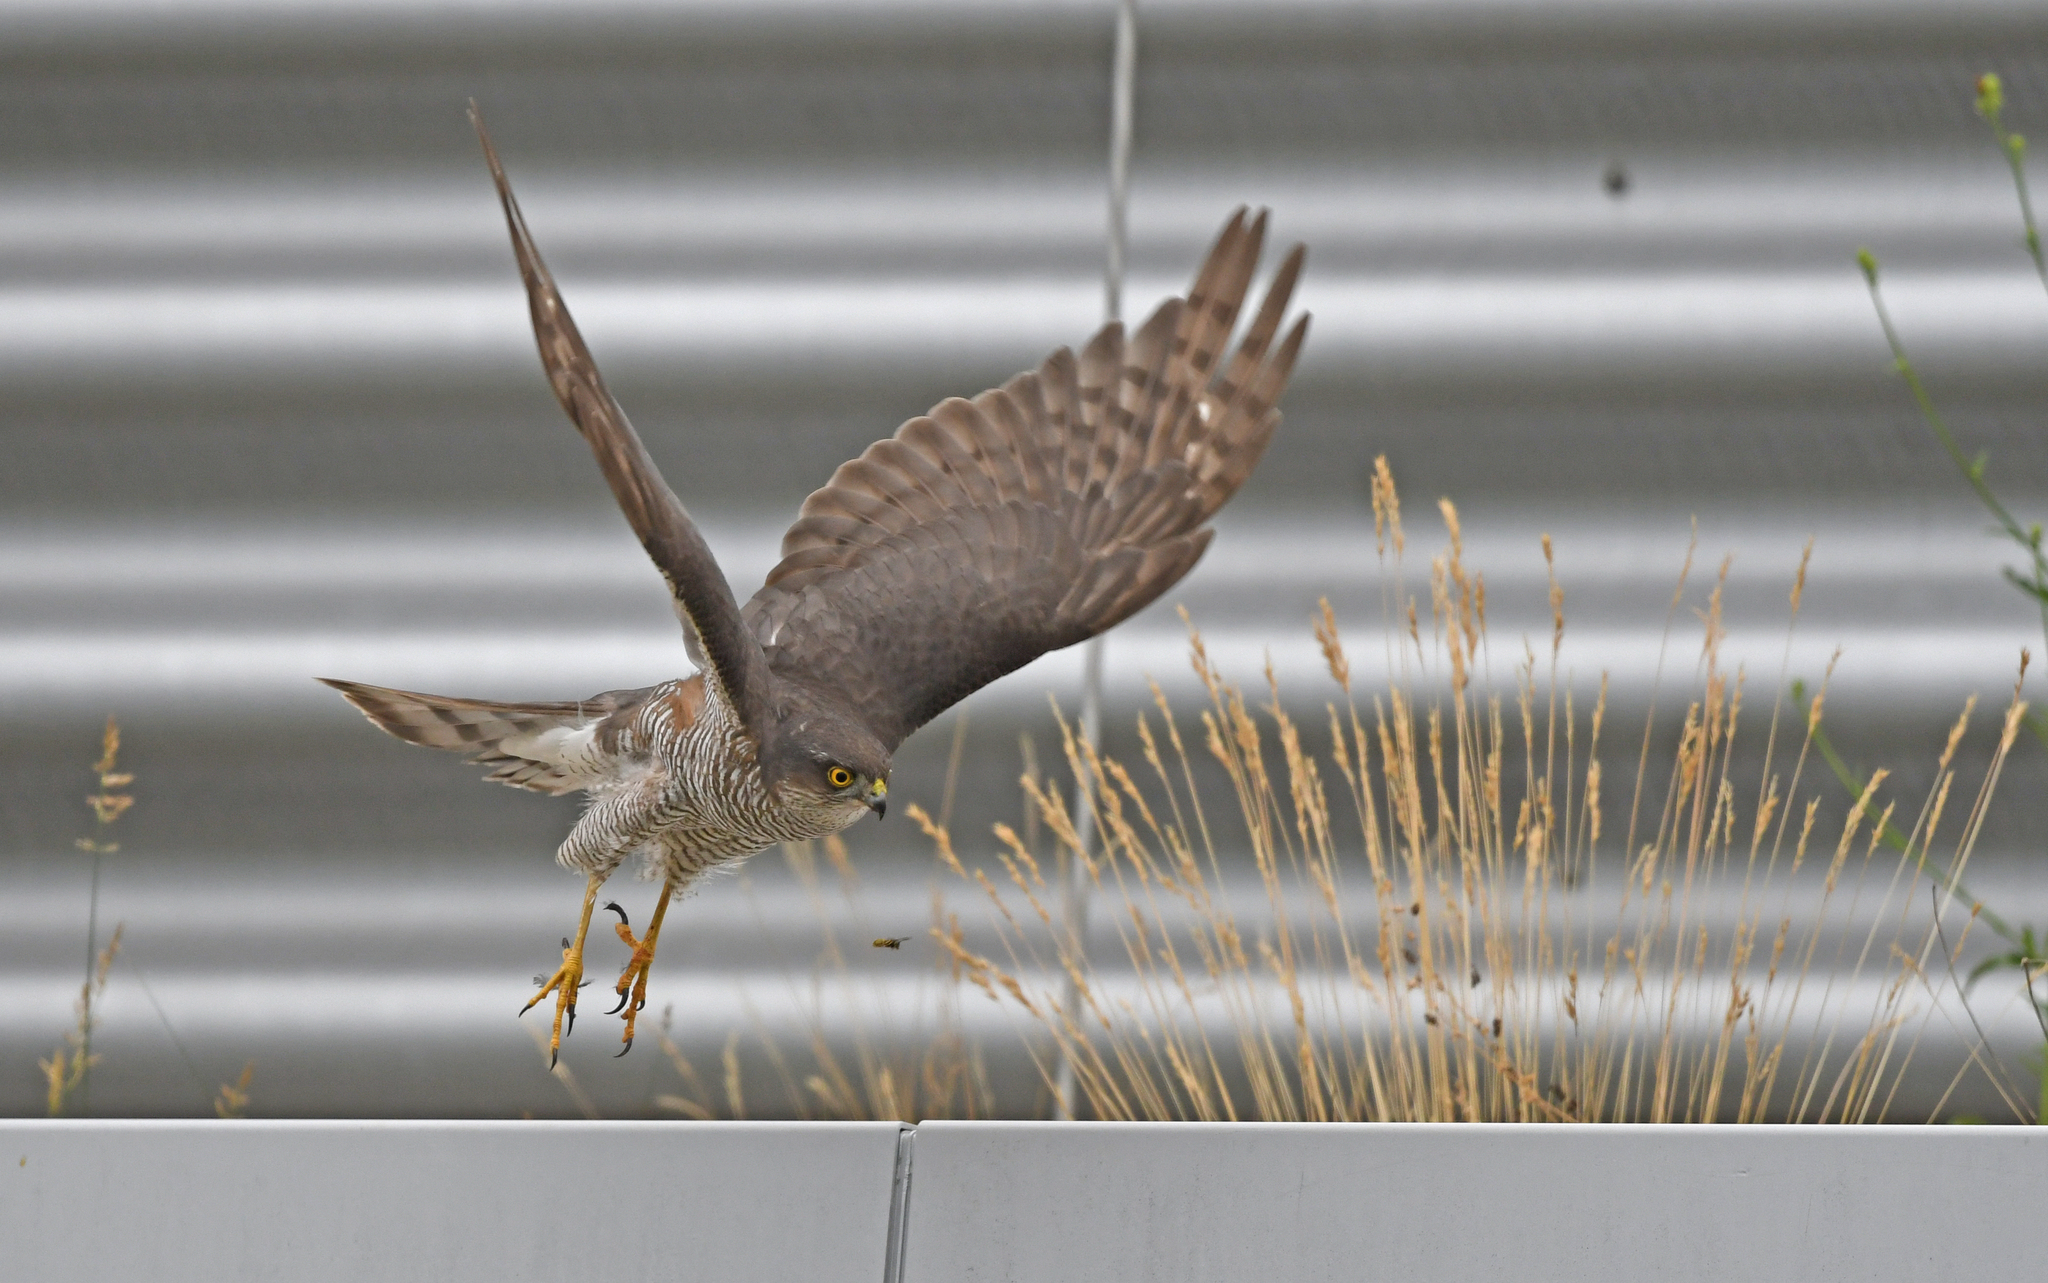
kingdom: Animalia
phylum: Chordata
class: Aves
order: Accipitriformes
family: Accipitridae
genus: Accipiter
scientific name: Accipiter nisus
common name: Eurasian sparrowhawk
